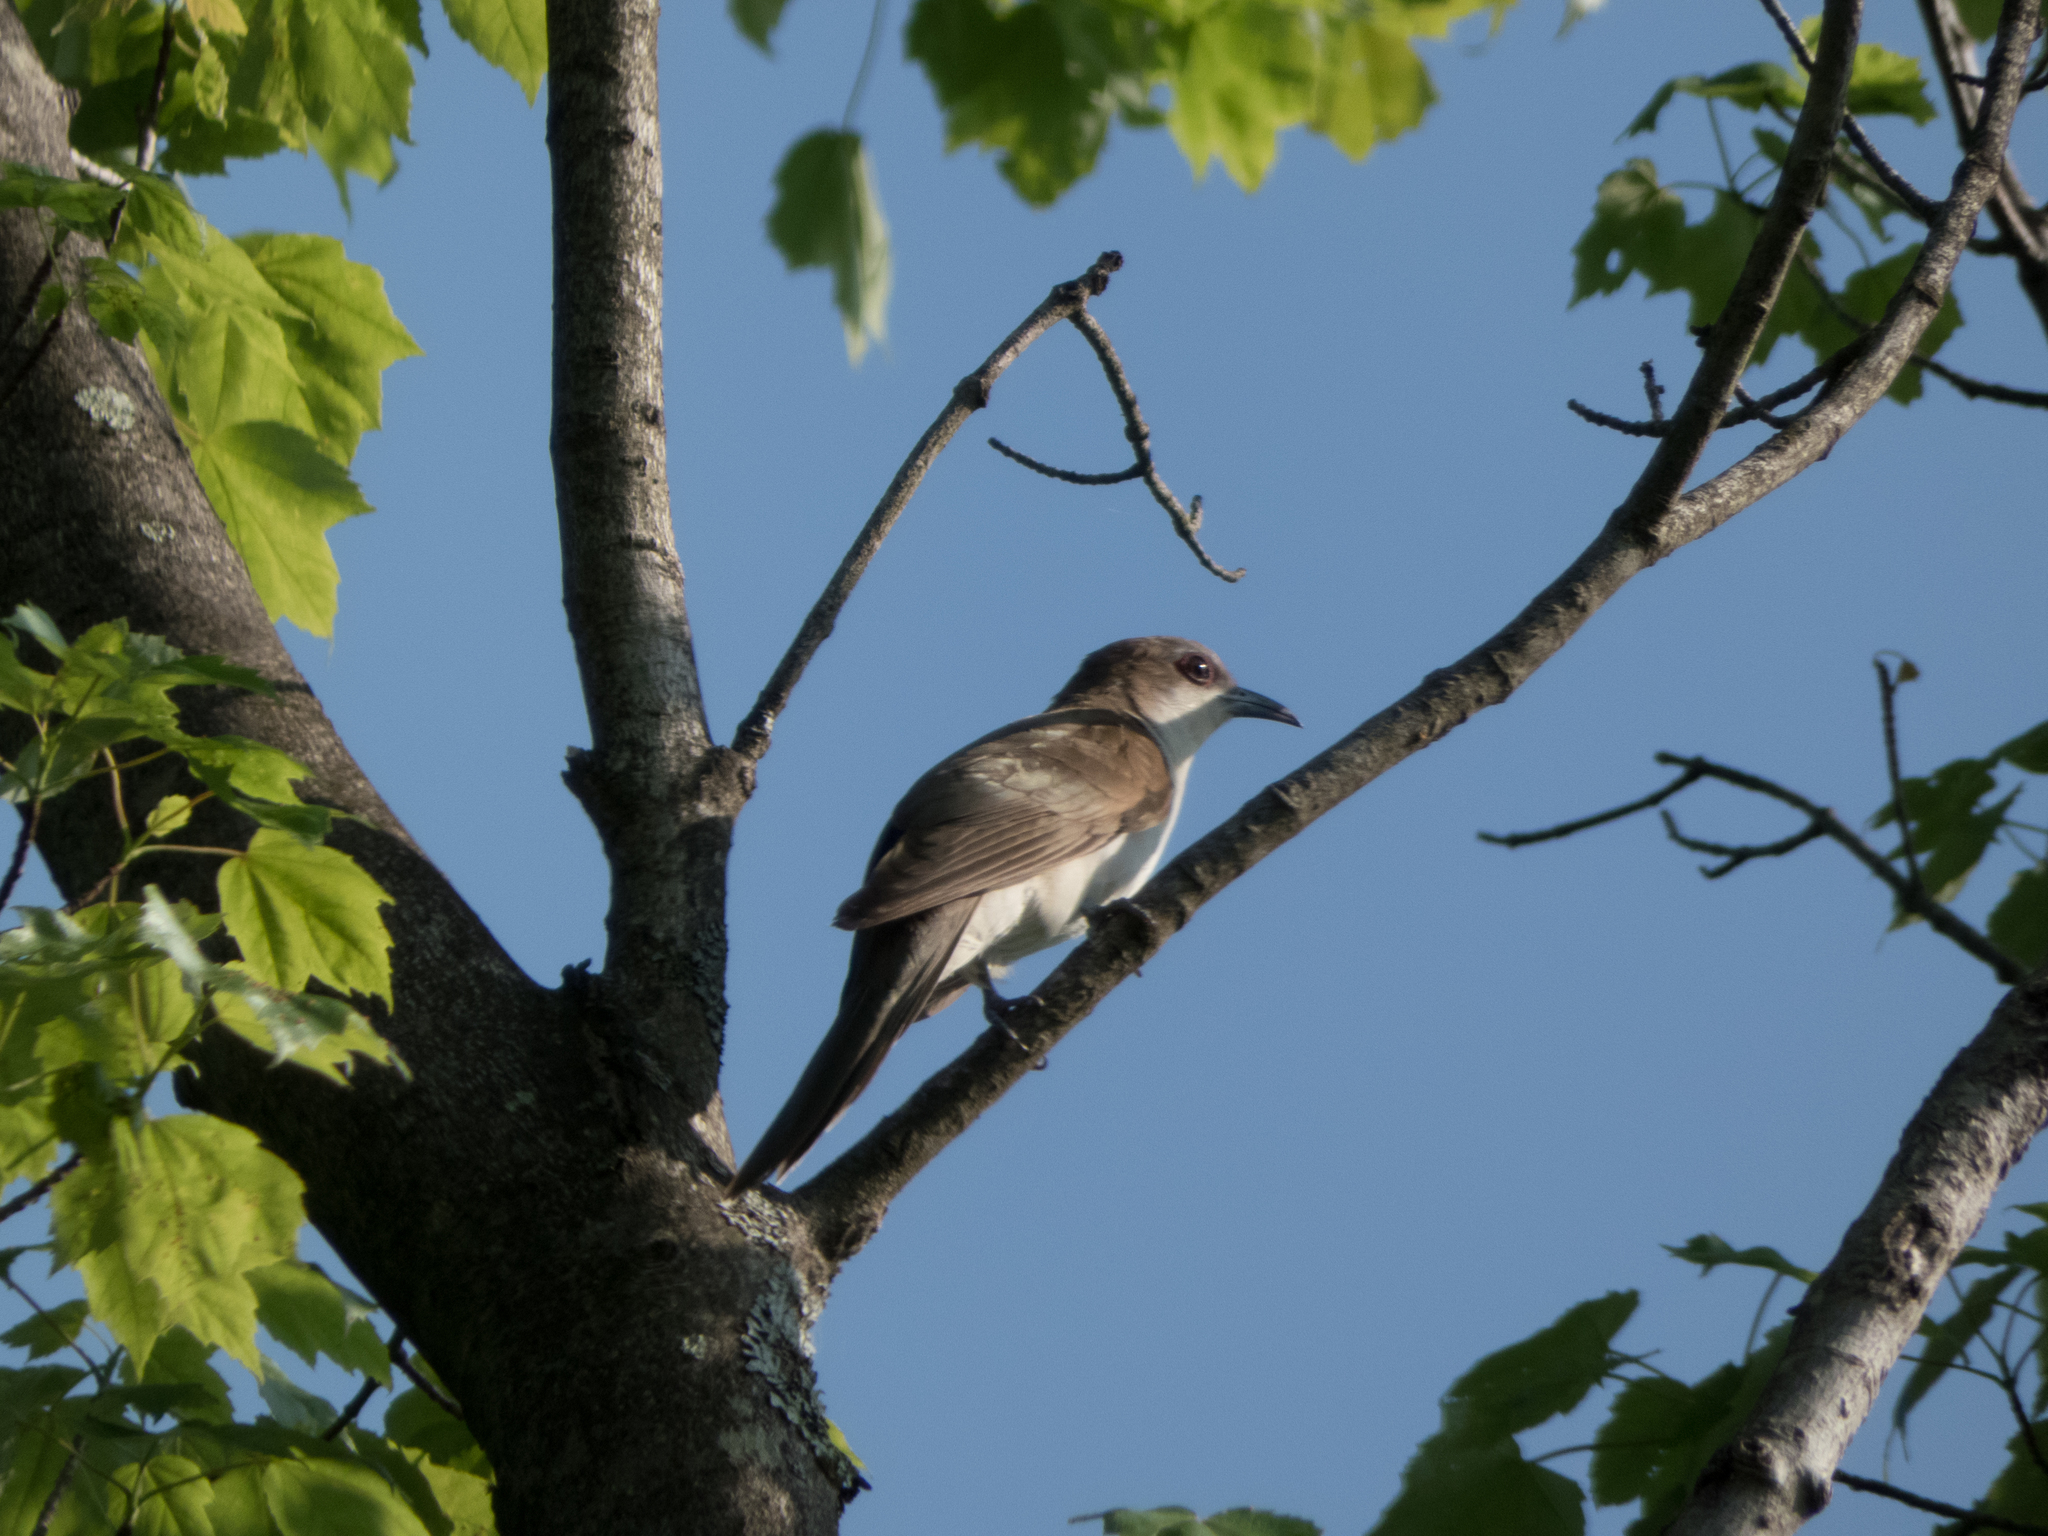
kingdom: Animalia
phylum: Chordata
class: Aves
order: Cuculiformes
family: Cuculidae
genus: Coccyzus
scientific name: Coccyzus erythropthalmus
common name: Black-billed cuckoo
